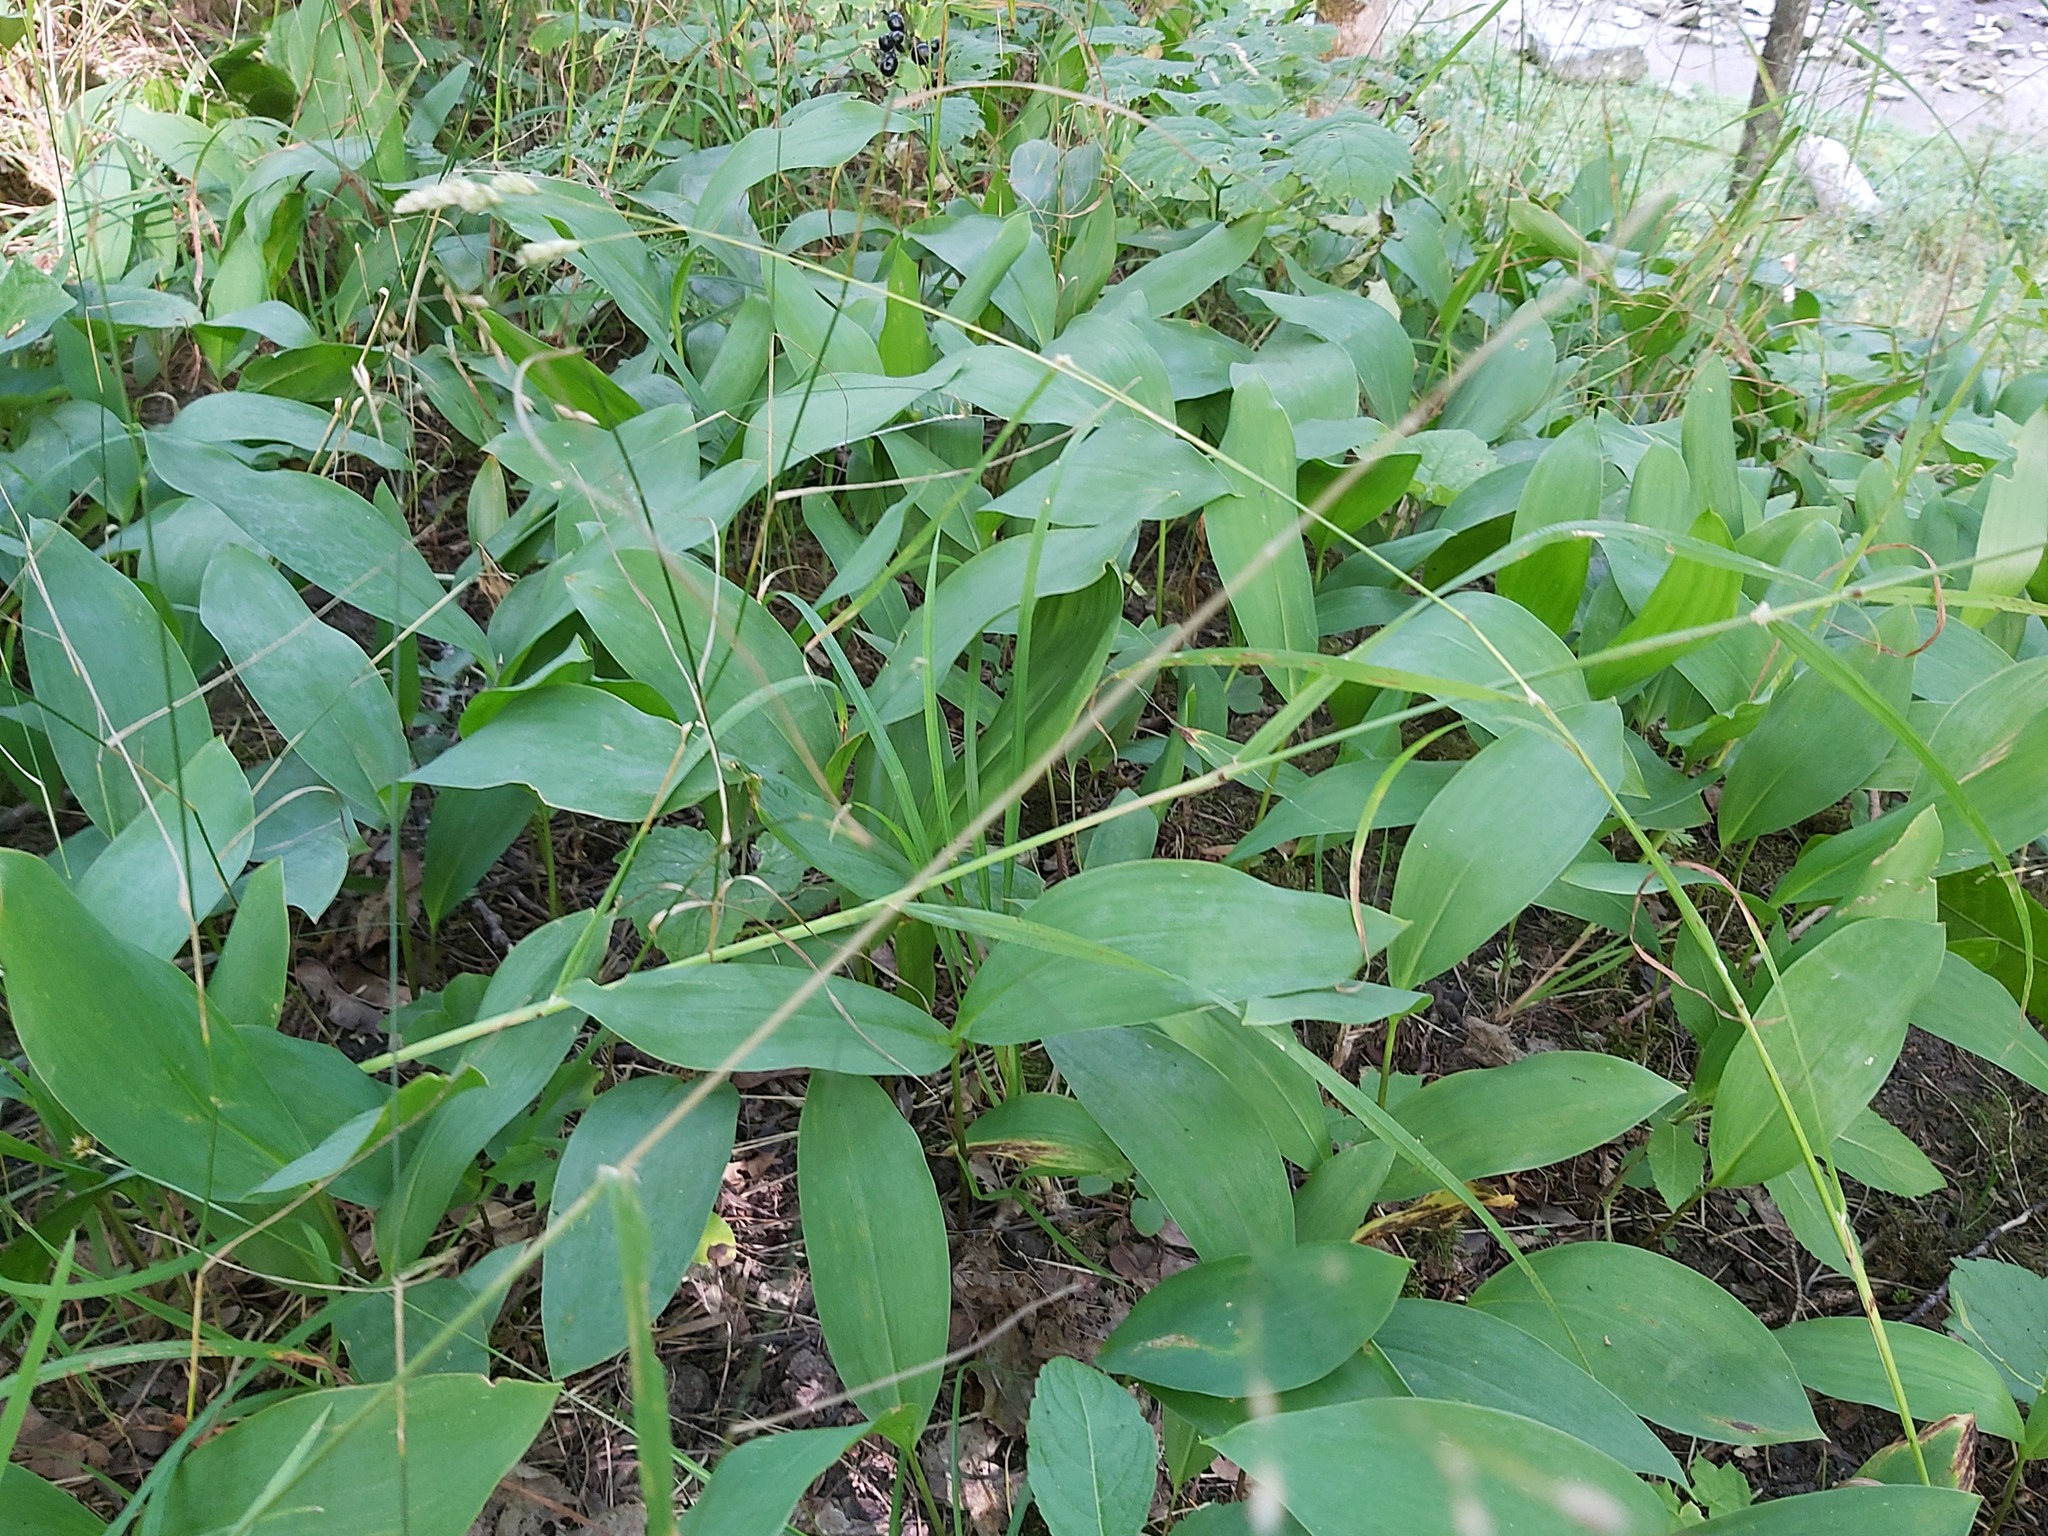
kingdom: Plantae
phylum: Tracheophyta
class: Liliopsida
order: Asparagales
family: Asparagaceae
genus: Convallaria
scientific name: Convallaria majalis
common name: Lily-of-the-valley
